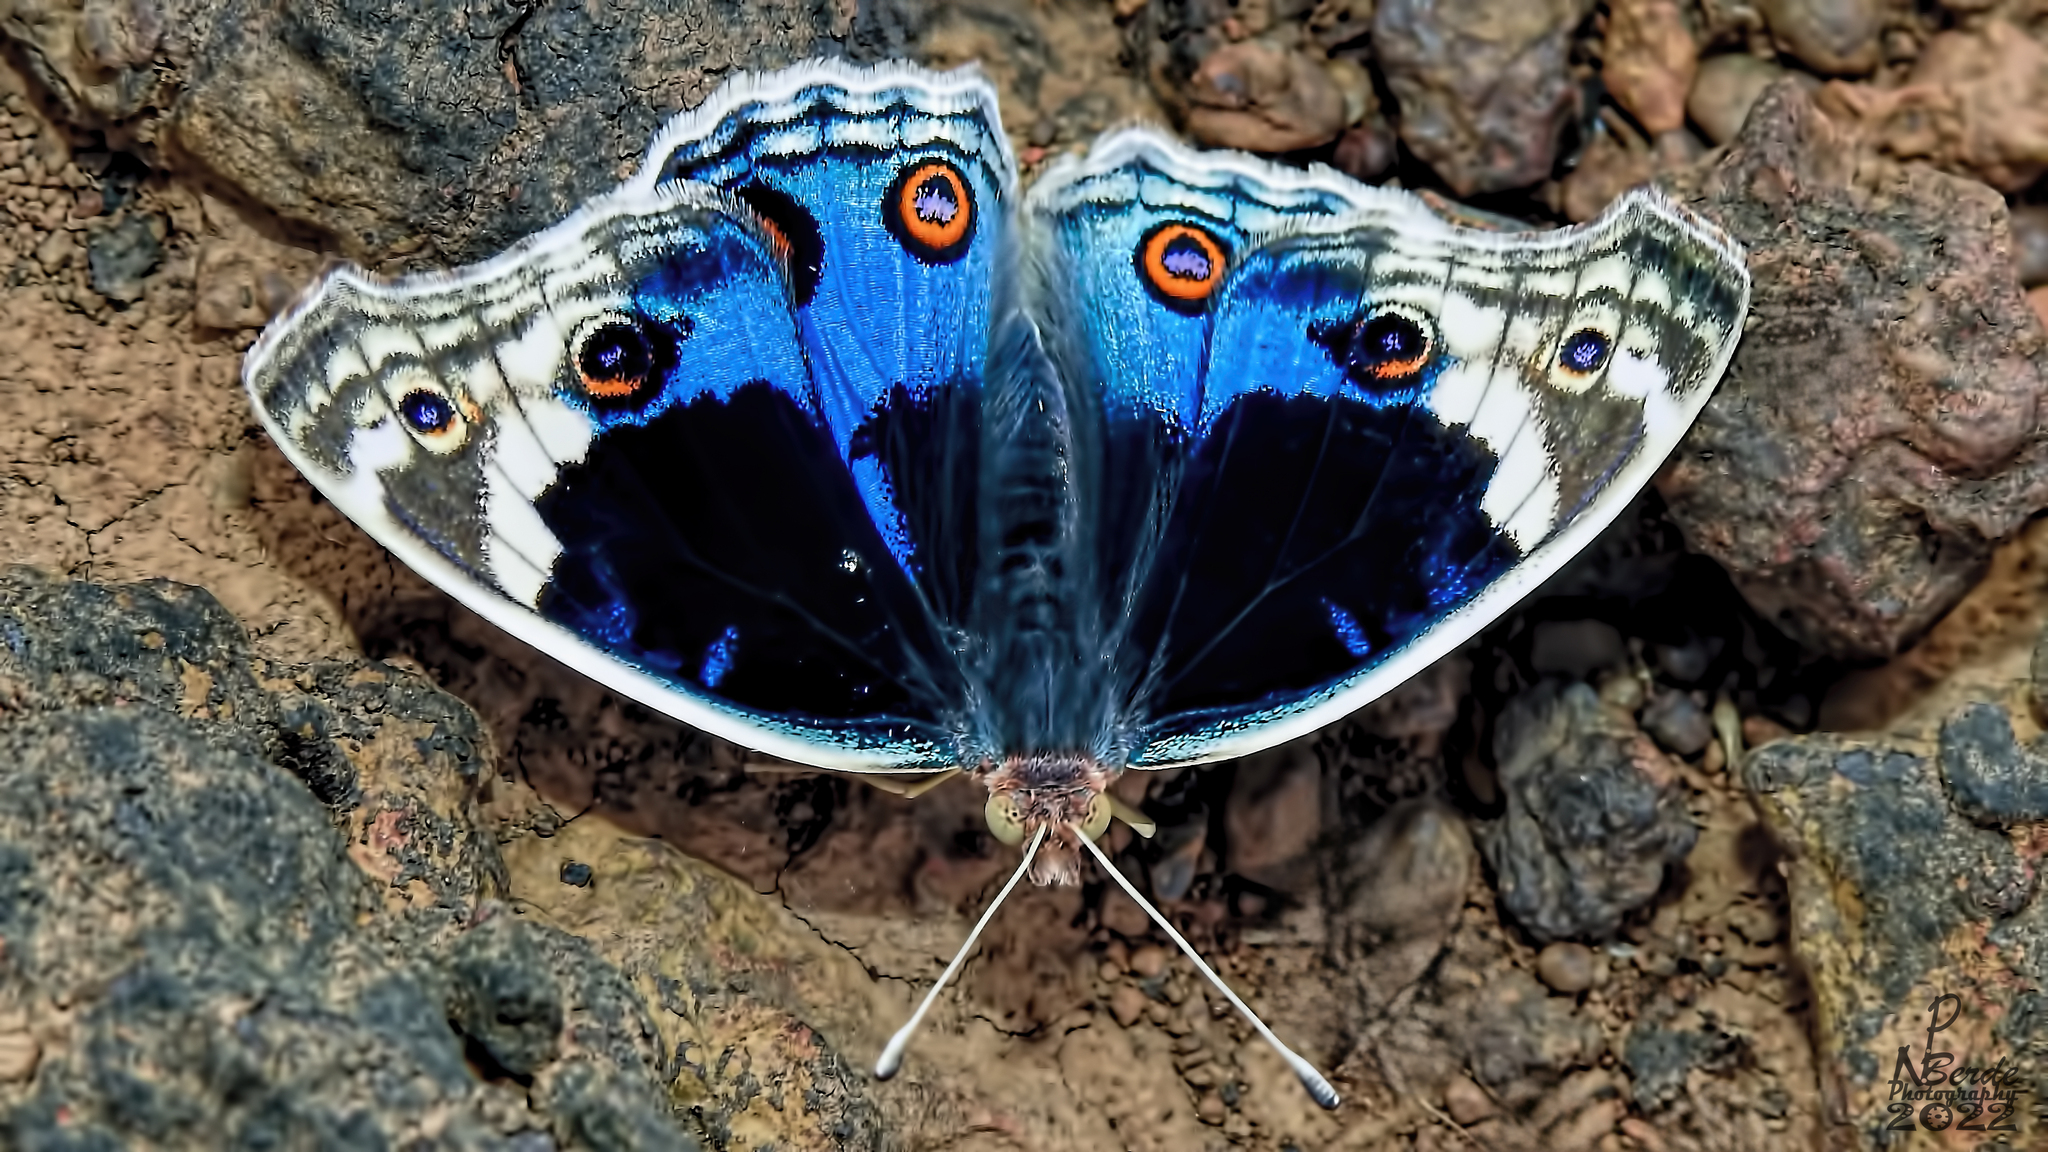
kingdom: Animalia
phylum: Arthropoda
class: Insecta
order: Lepidoptera
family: Nymphalidae
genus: Junonia
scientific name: Junonia orithya
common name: Blue pansy
